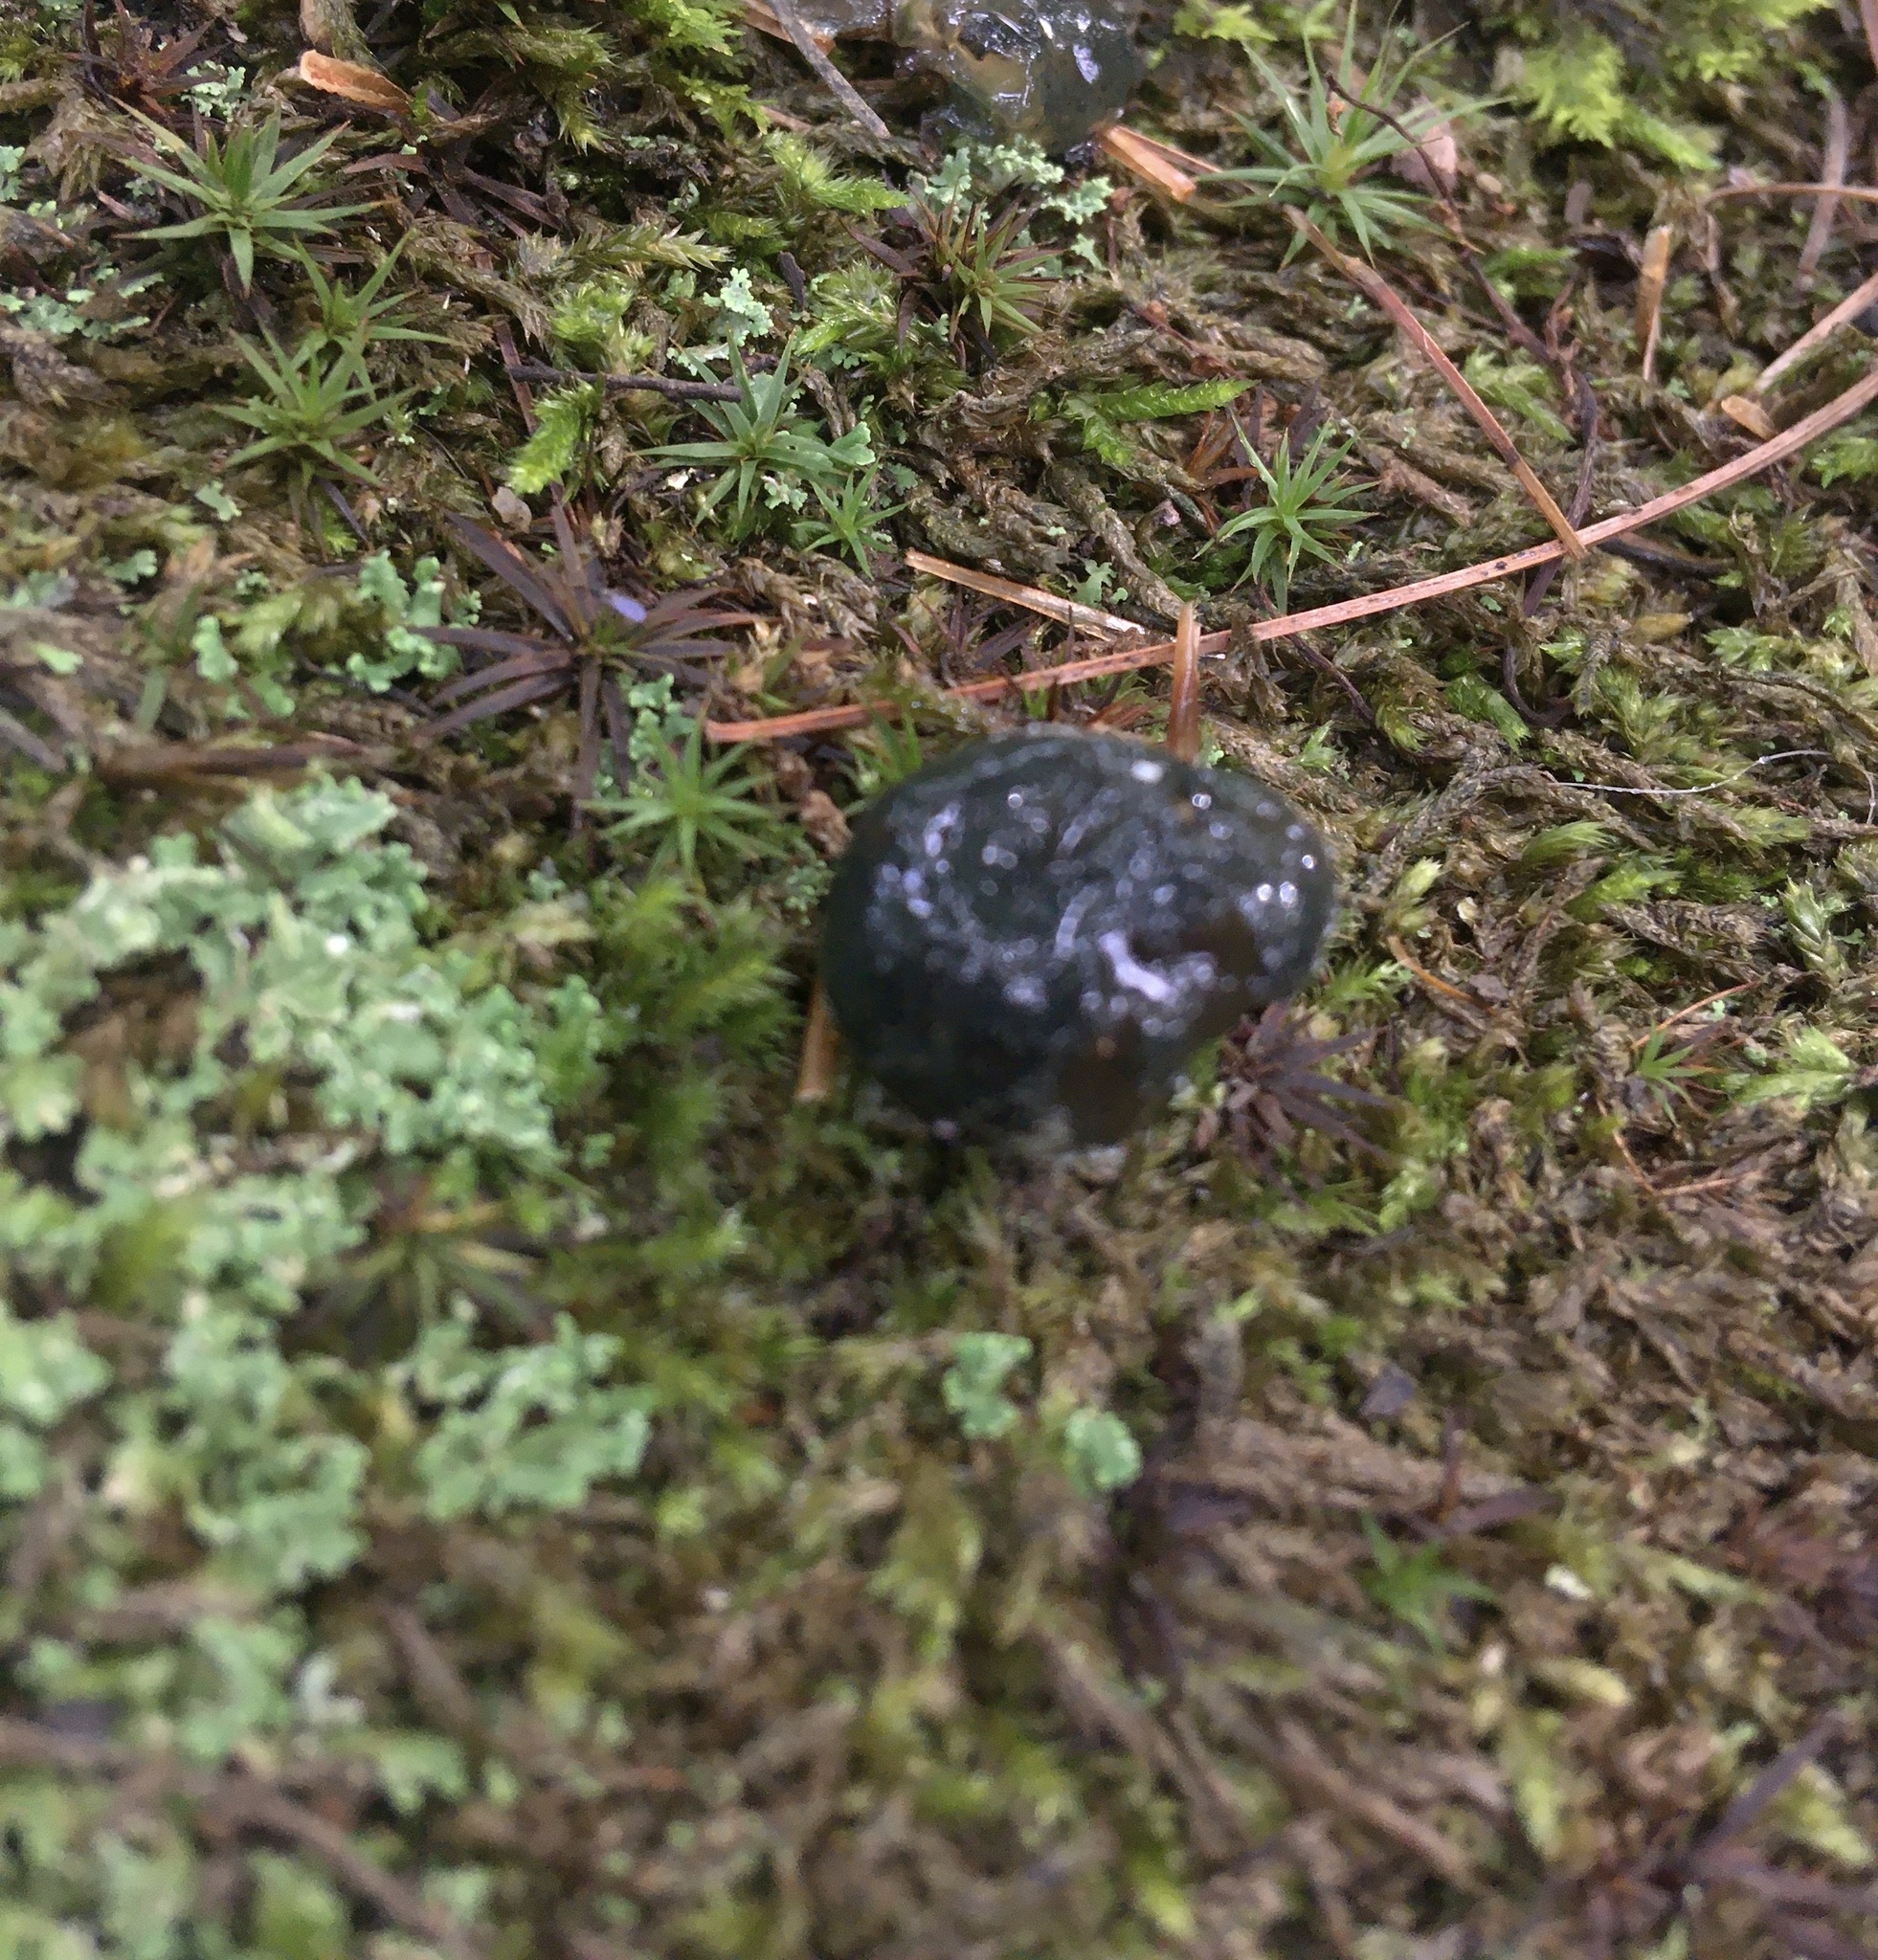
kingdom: Fungi
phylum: Ascomycota
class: Sordariomycetes
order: Hypocreales
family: Hypocreaceae
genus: Hypomyces
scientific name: Hypomyces leotiicola
